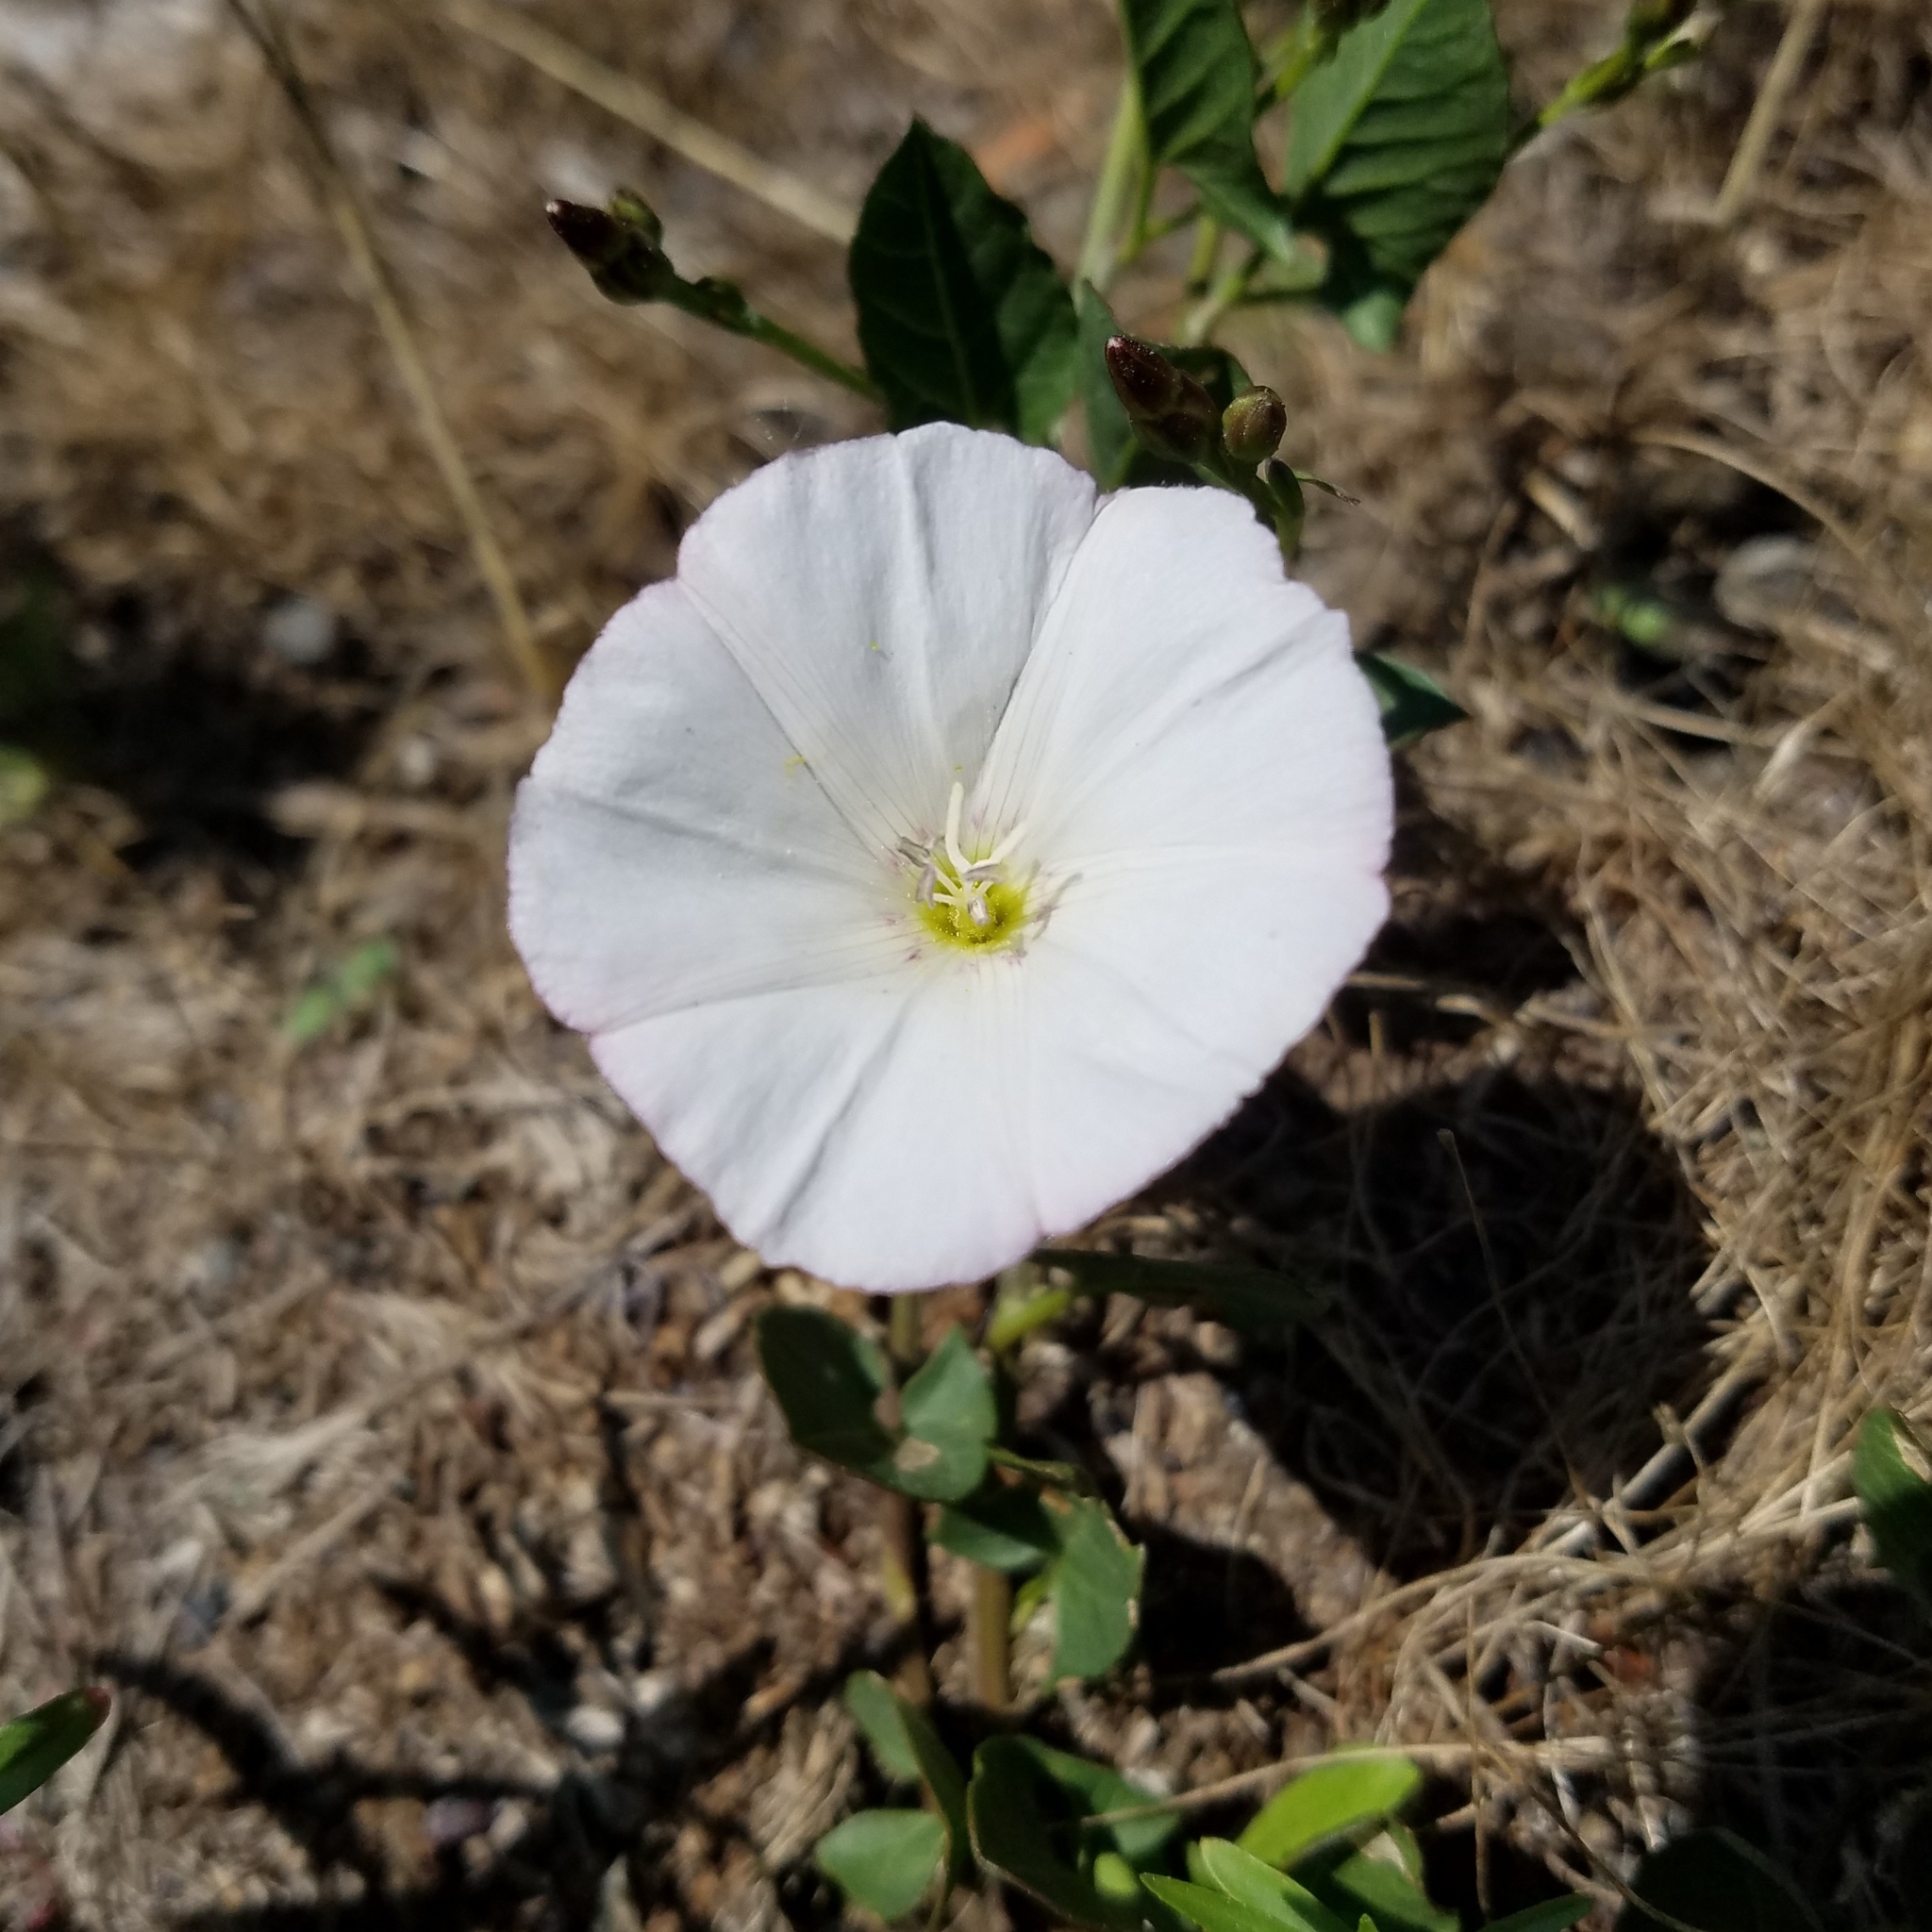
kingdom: Plantae
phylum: Tracheophyta
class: Magnoliopsida
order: Solanales
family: Convolvulaceae
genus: Convolvulus
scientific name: Convolvulus arvensis
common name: Field bindweed
